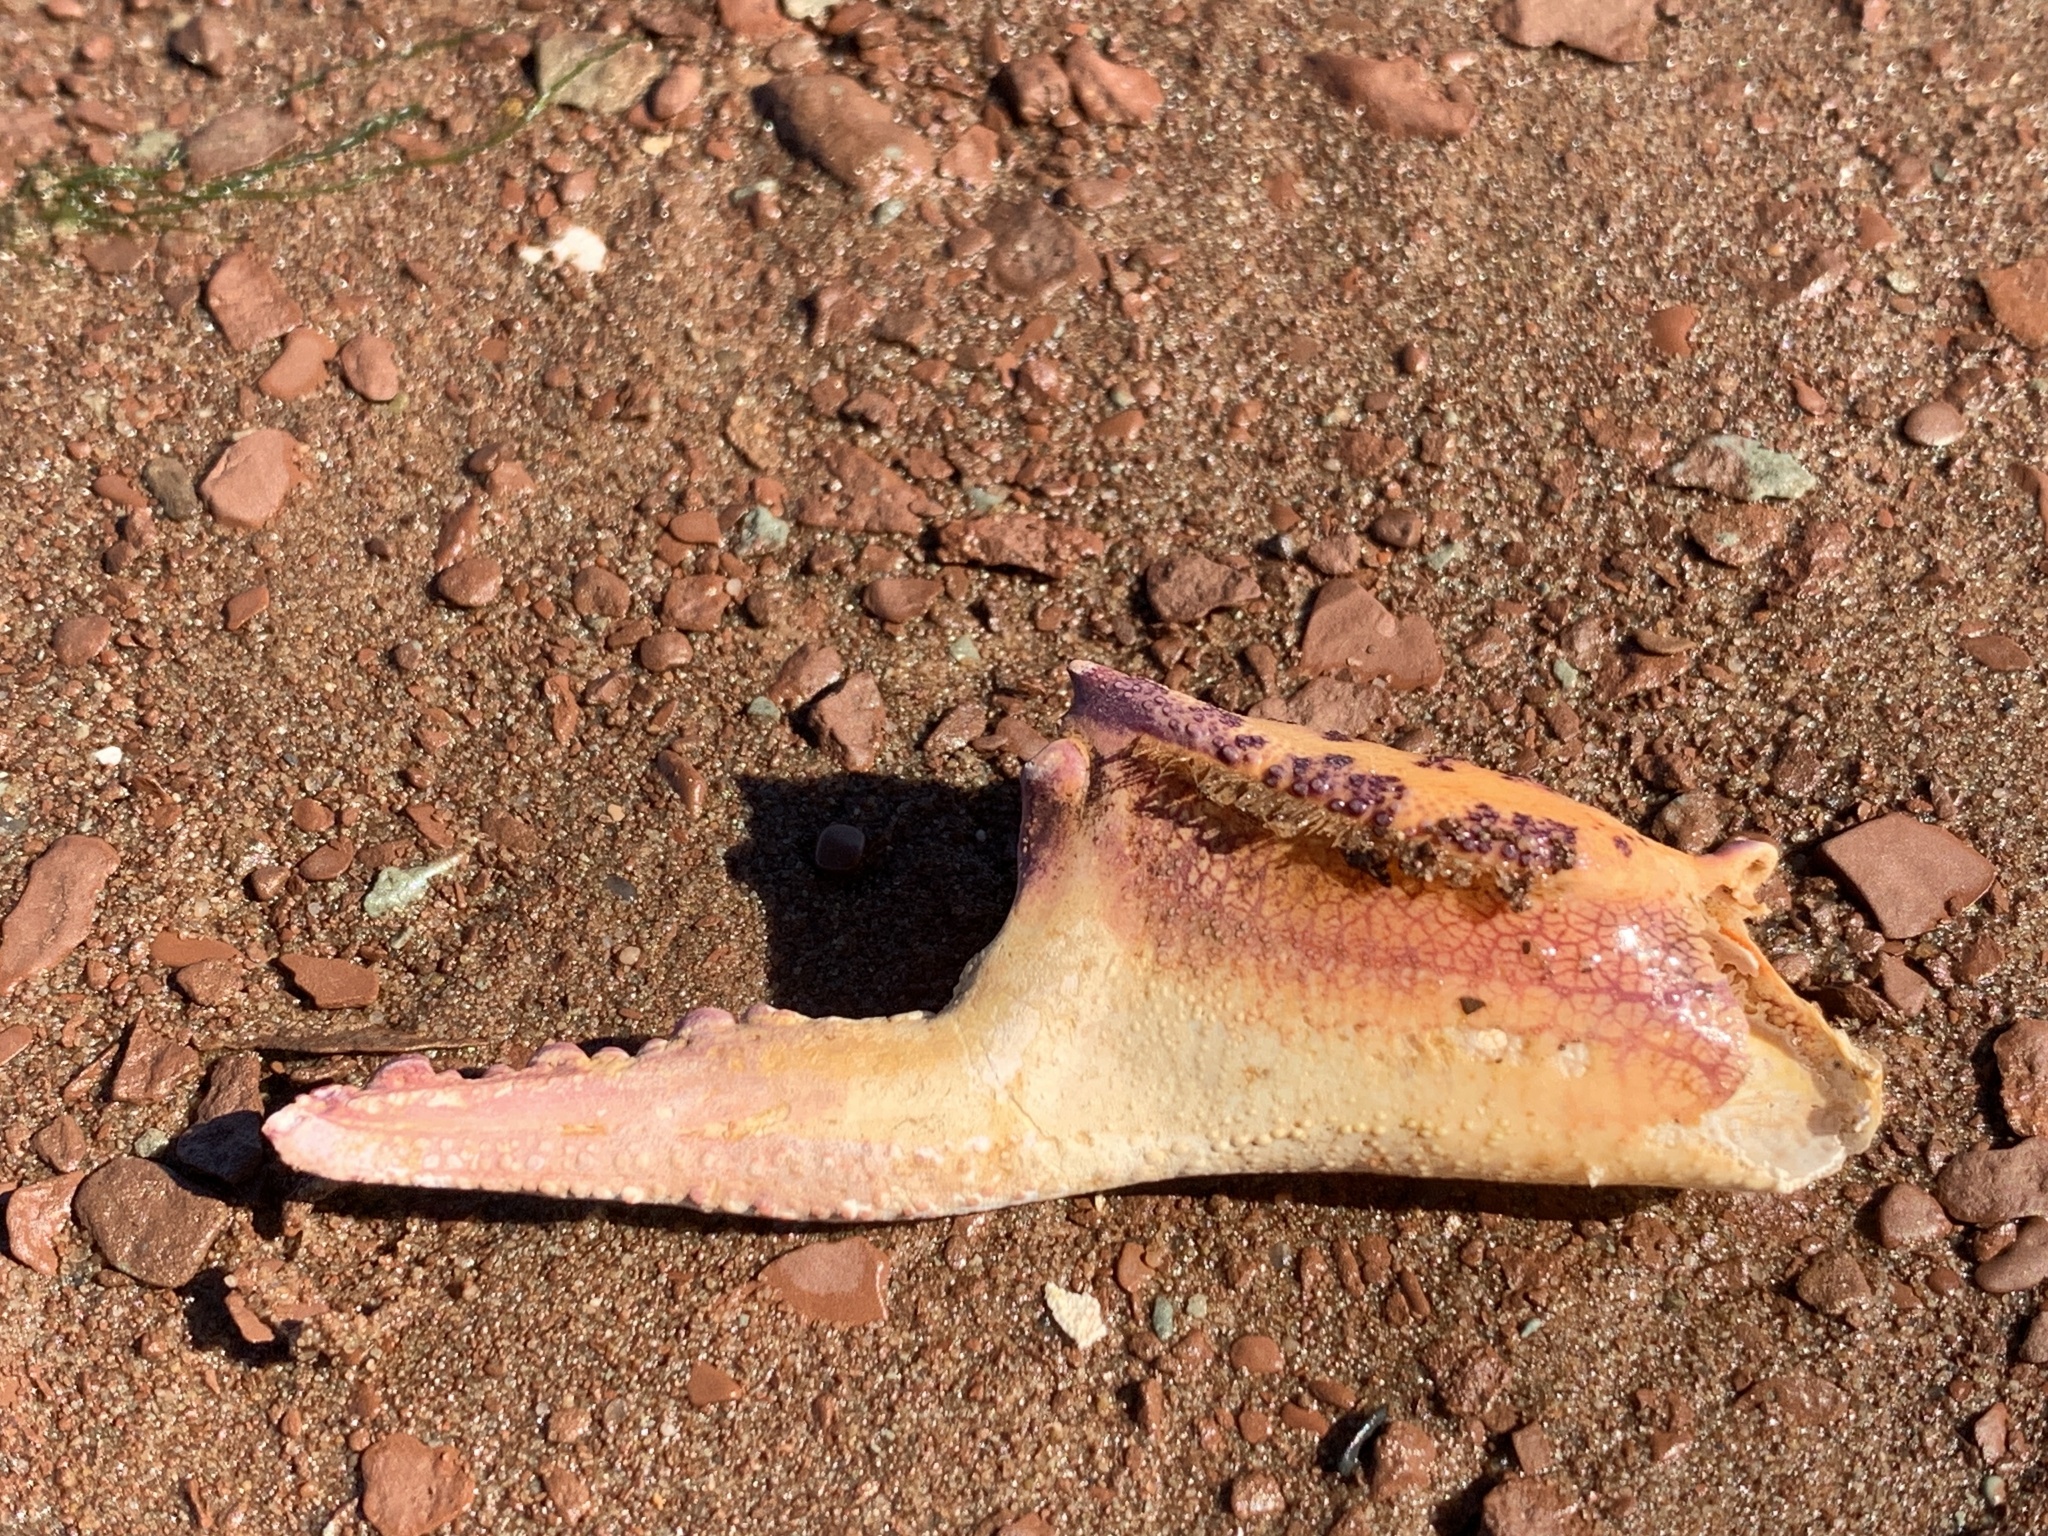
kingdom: Animalia
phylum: Arthropoda
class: Malacostraca
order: Decapoda
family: Ovalipidae
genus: Ovalipes
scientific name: Ovalipes ocellatus
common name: Lady crab
